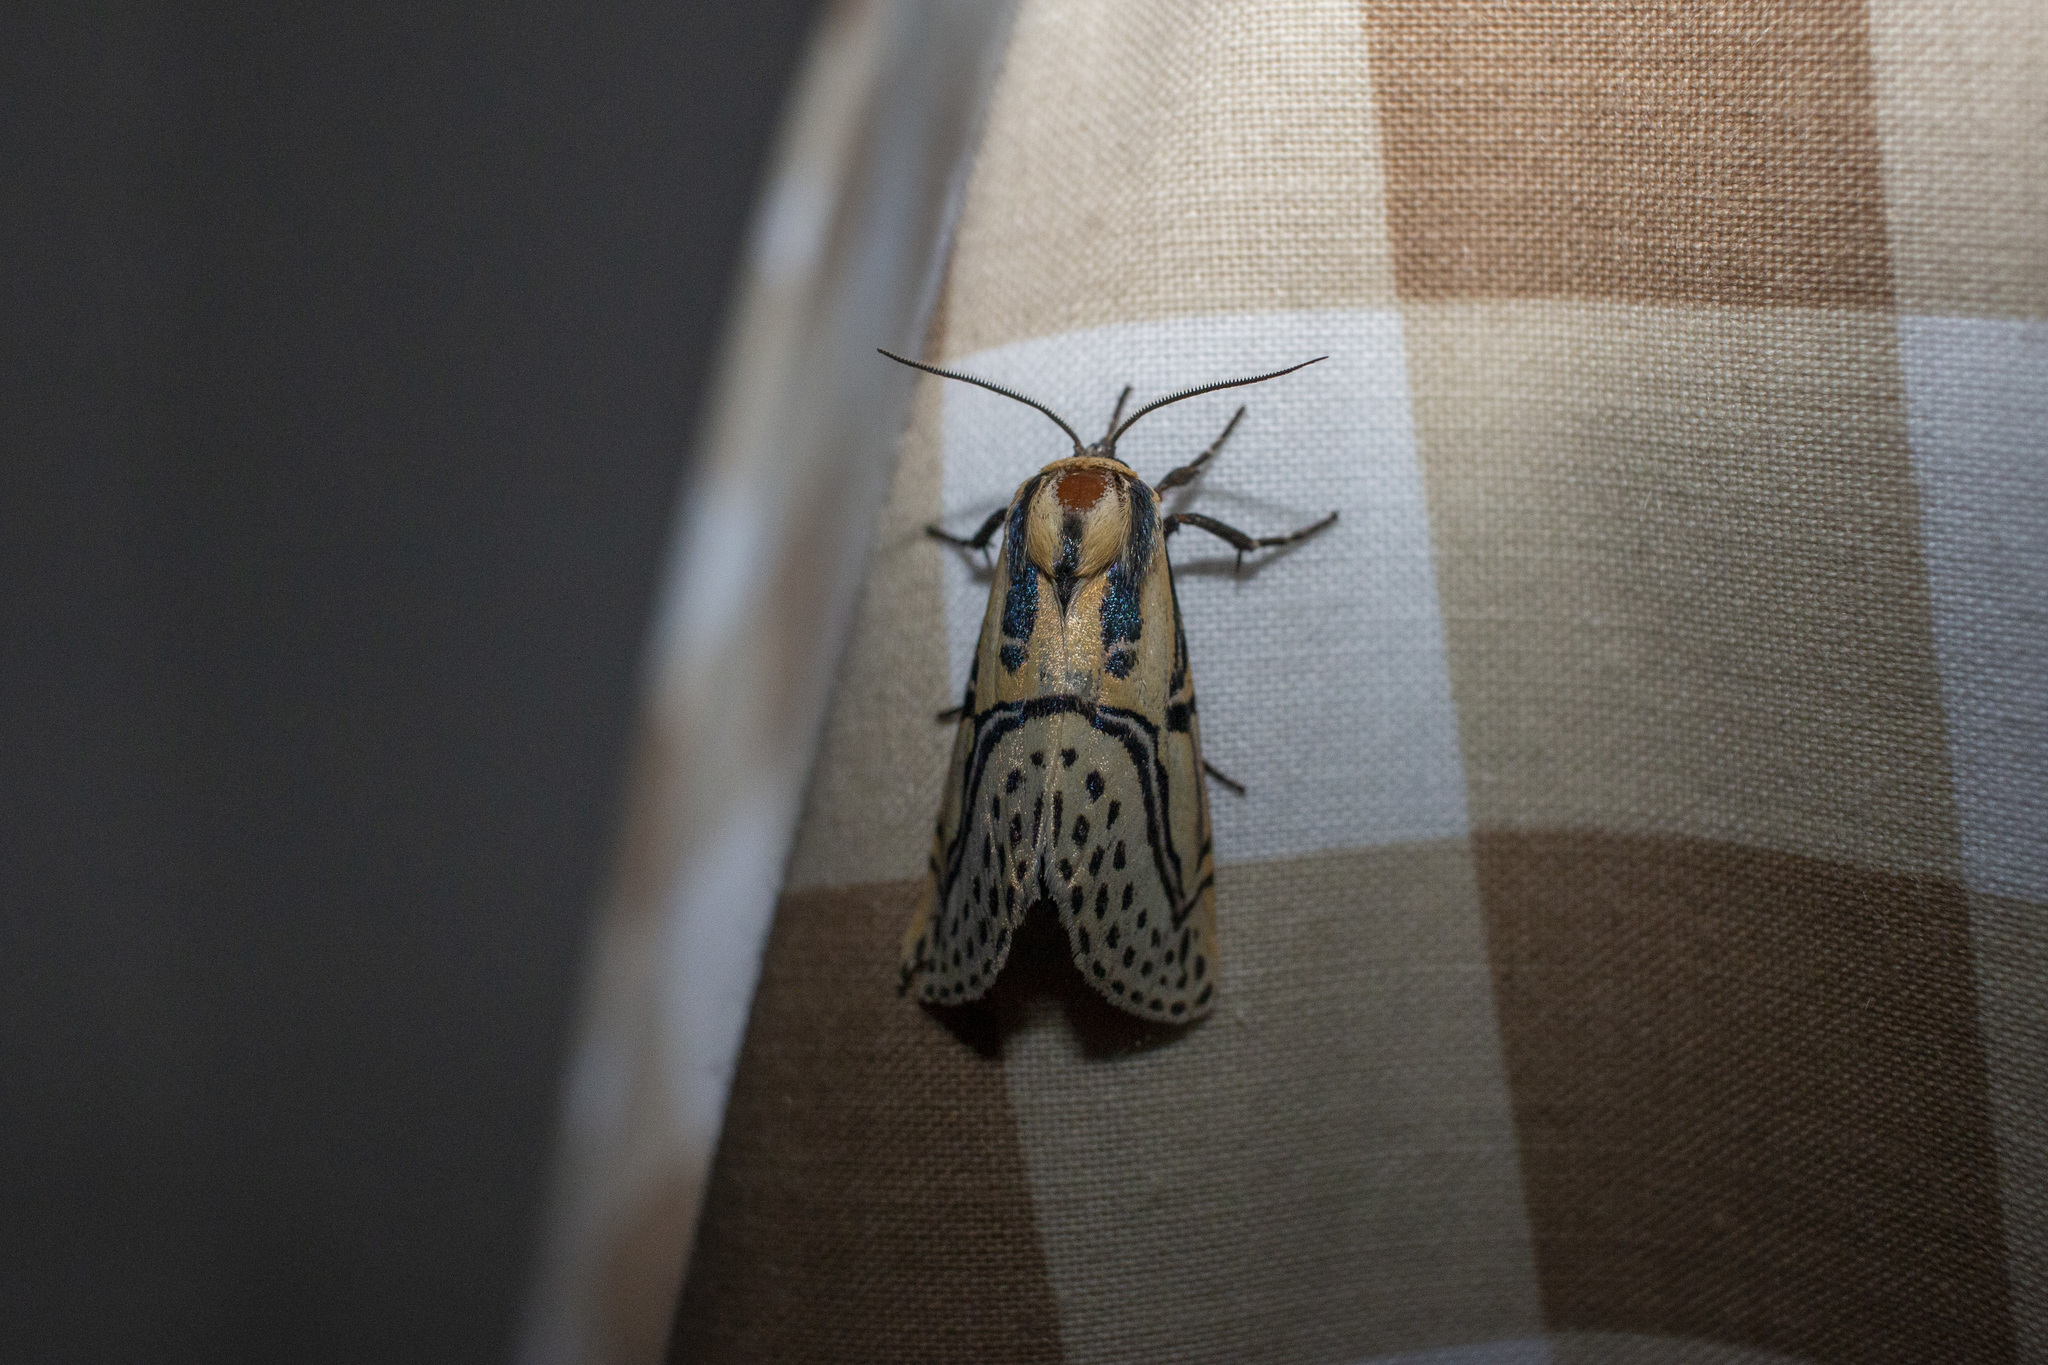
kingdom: Animalia
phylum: Arthropoda
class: Insecta
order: Lepidoptera
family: Erebidae
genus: Diphthera
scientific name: Diphthera festiva
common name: Hieroglyphic moth
